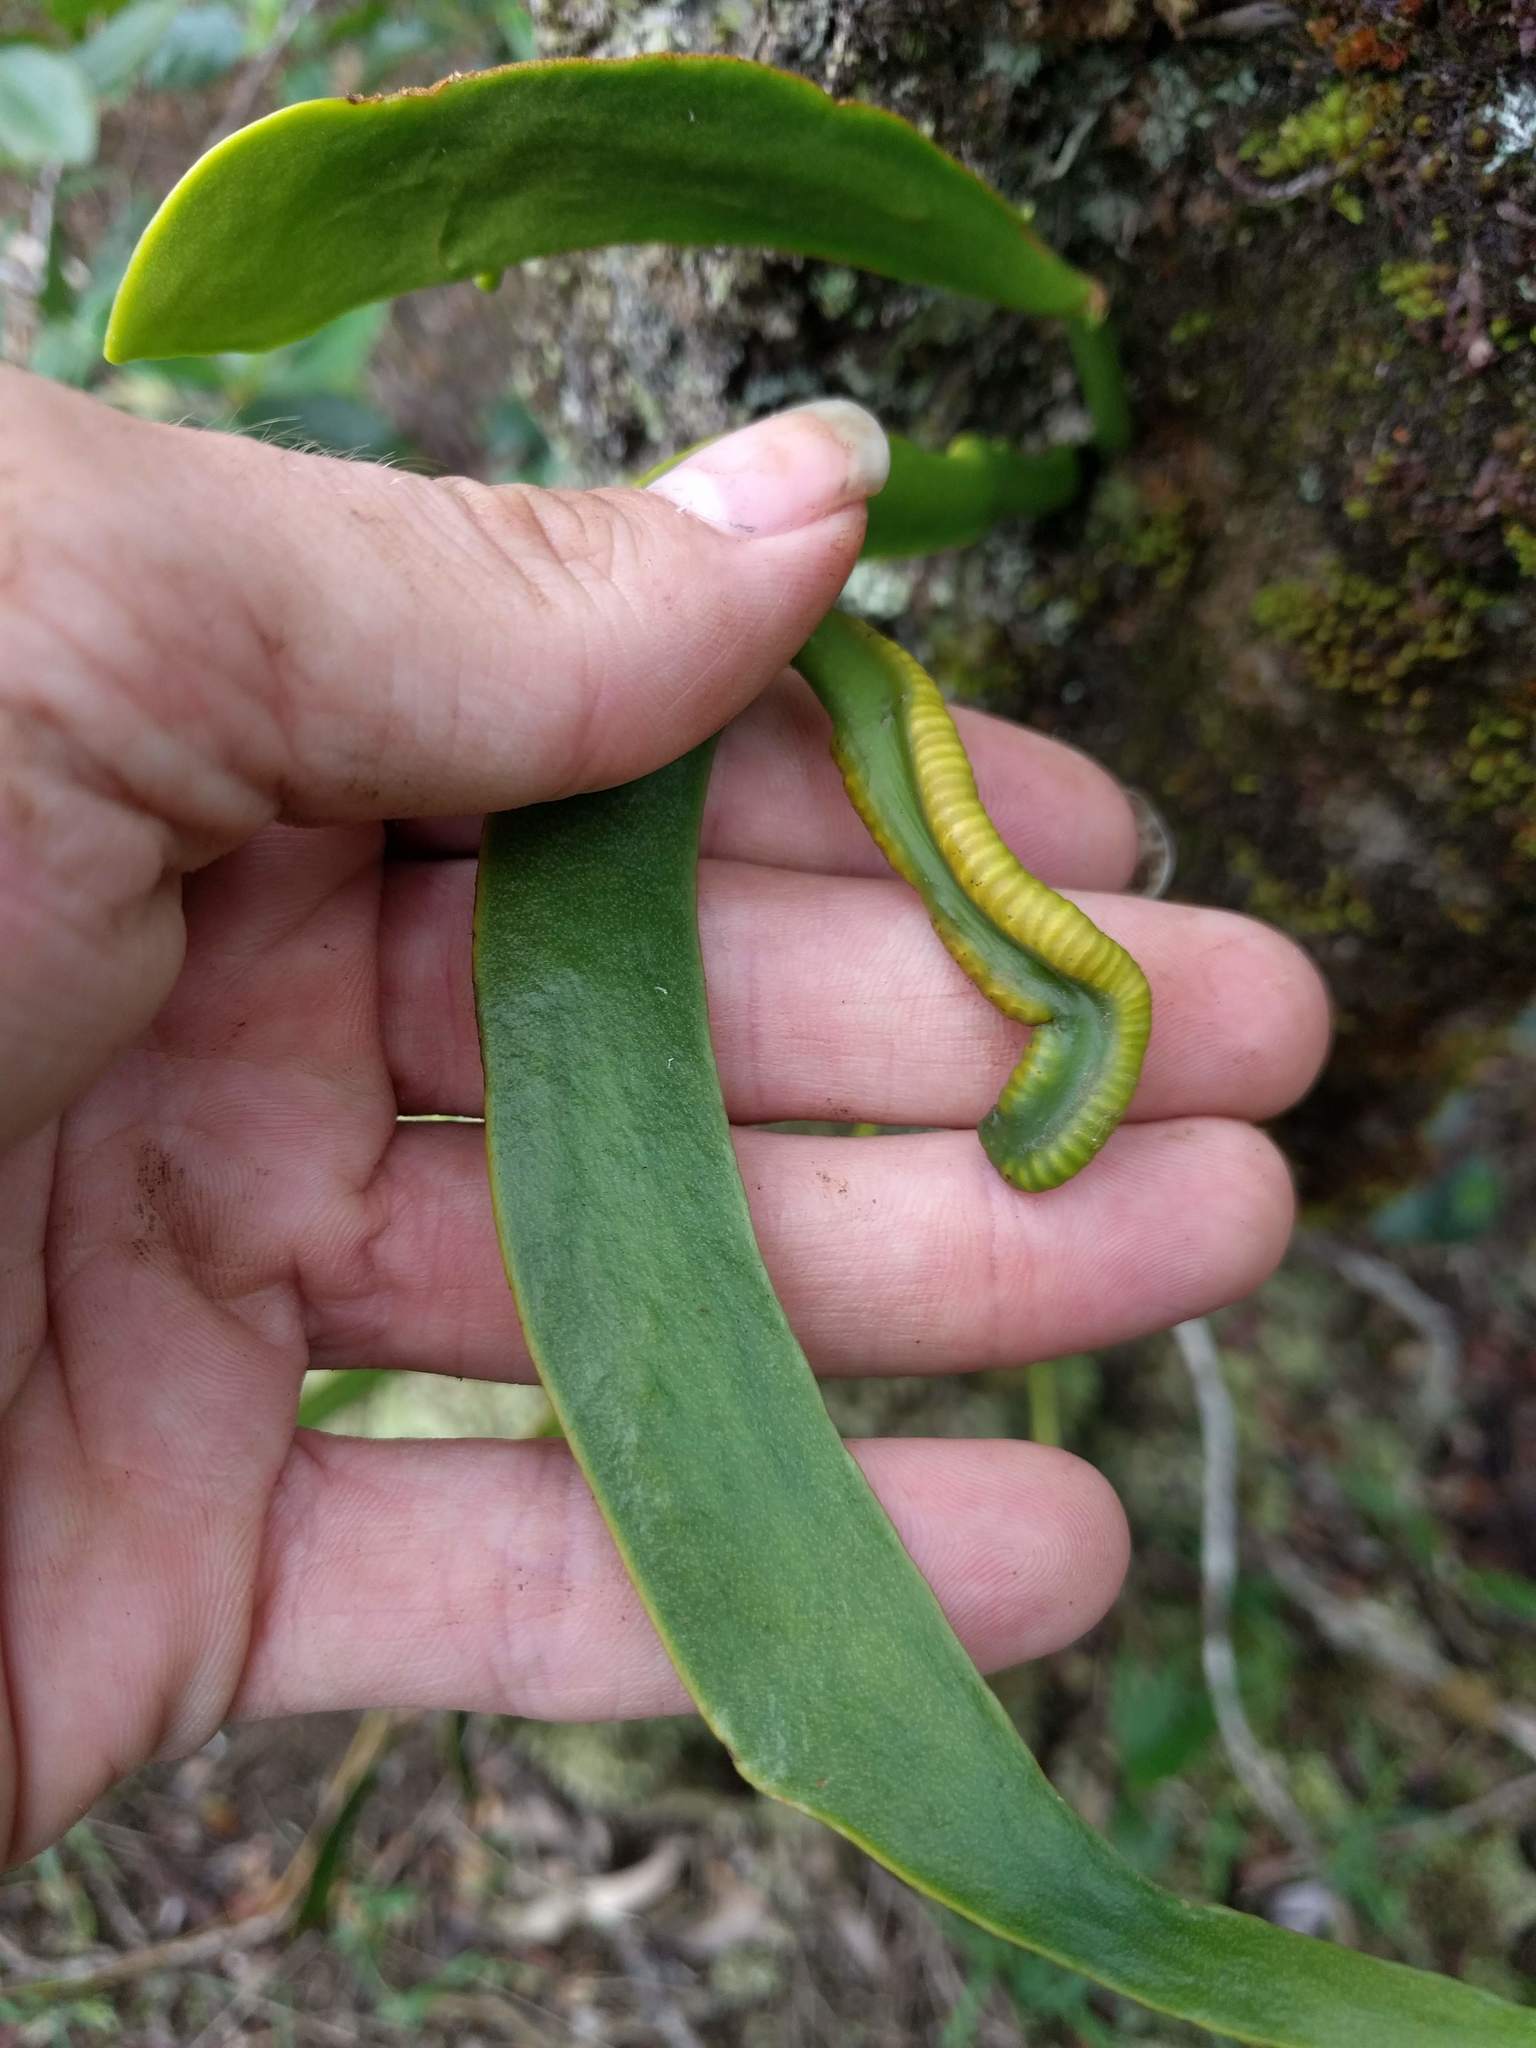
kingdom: Plantae
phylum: Tracheophyta
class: Polypodiopsida
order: Ophioglossales
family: Ophioglossaceae
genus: Ophioderma
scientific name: Ophioderma falcatum
